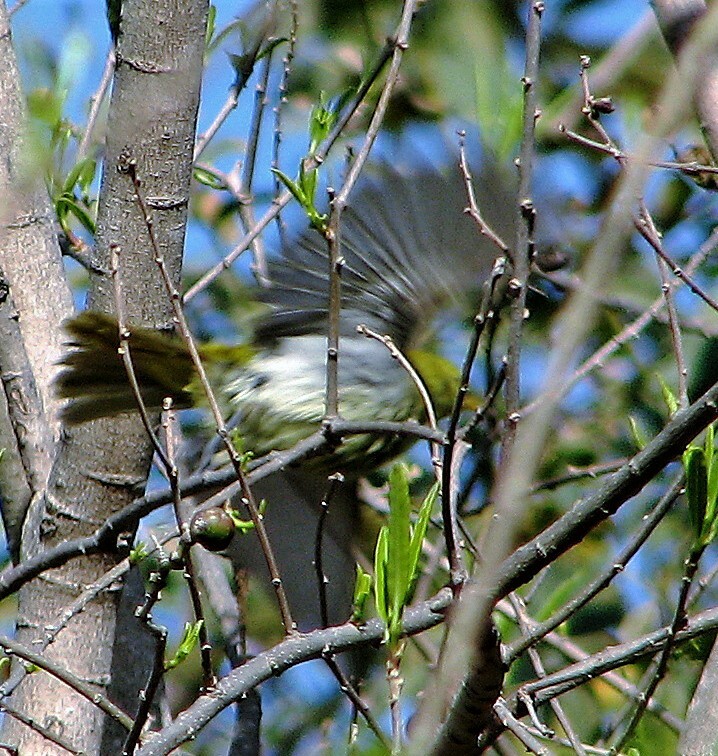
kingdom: Animalia
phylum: Chordata
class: Aves
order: Passeriformes
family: Thraupidae
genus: Hemithraupis
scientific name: Hemithraupis guira
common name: Guira tanager
